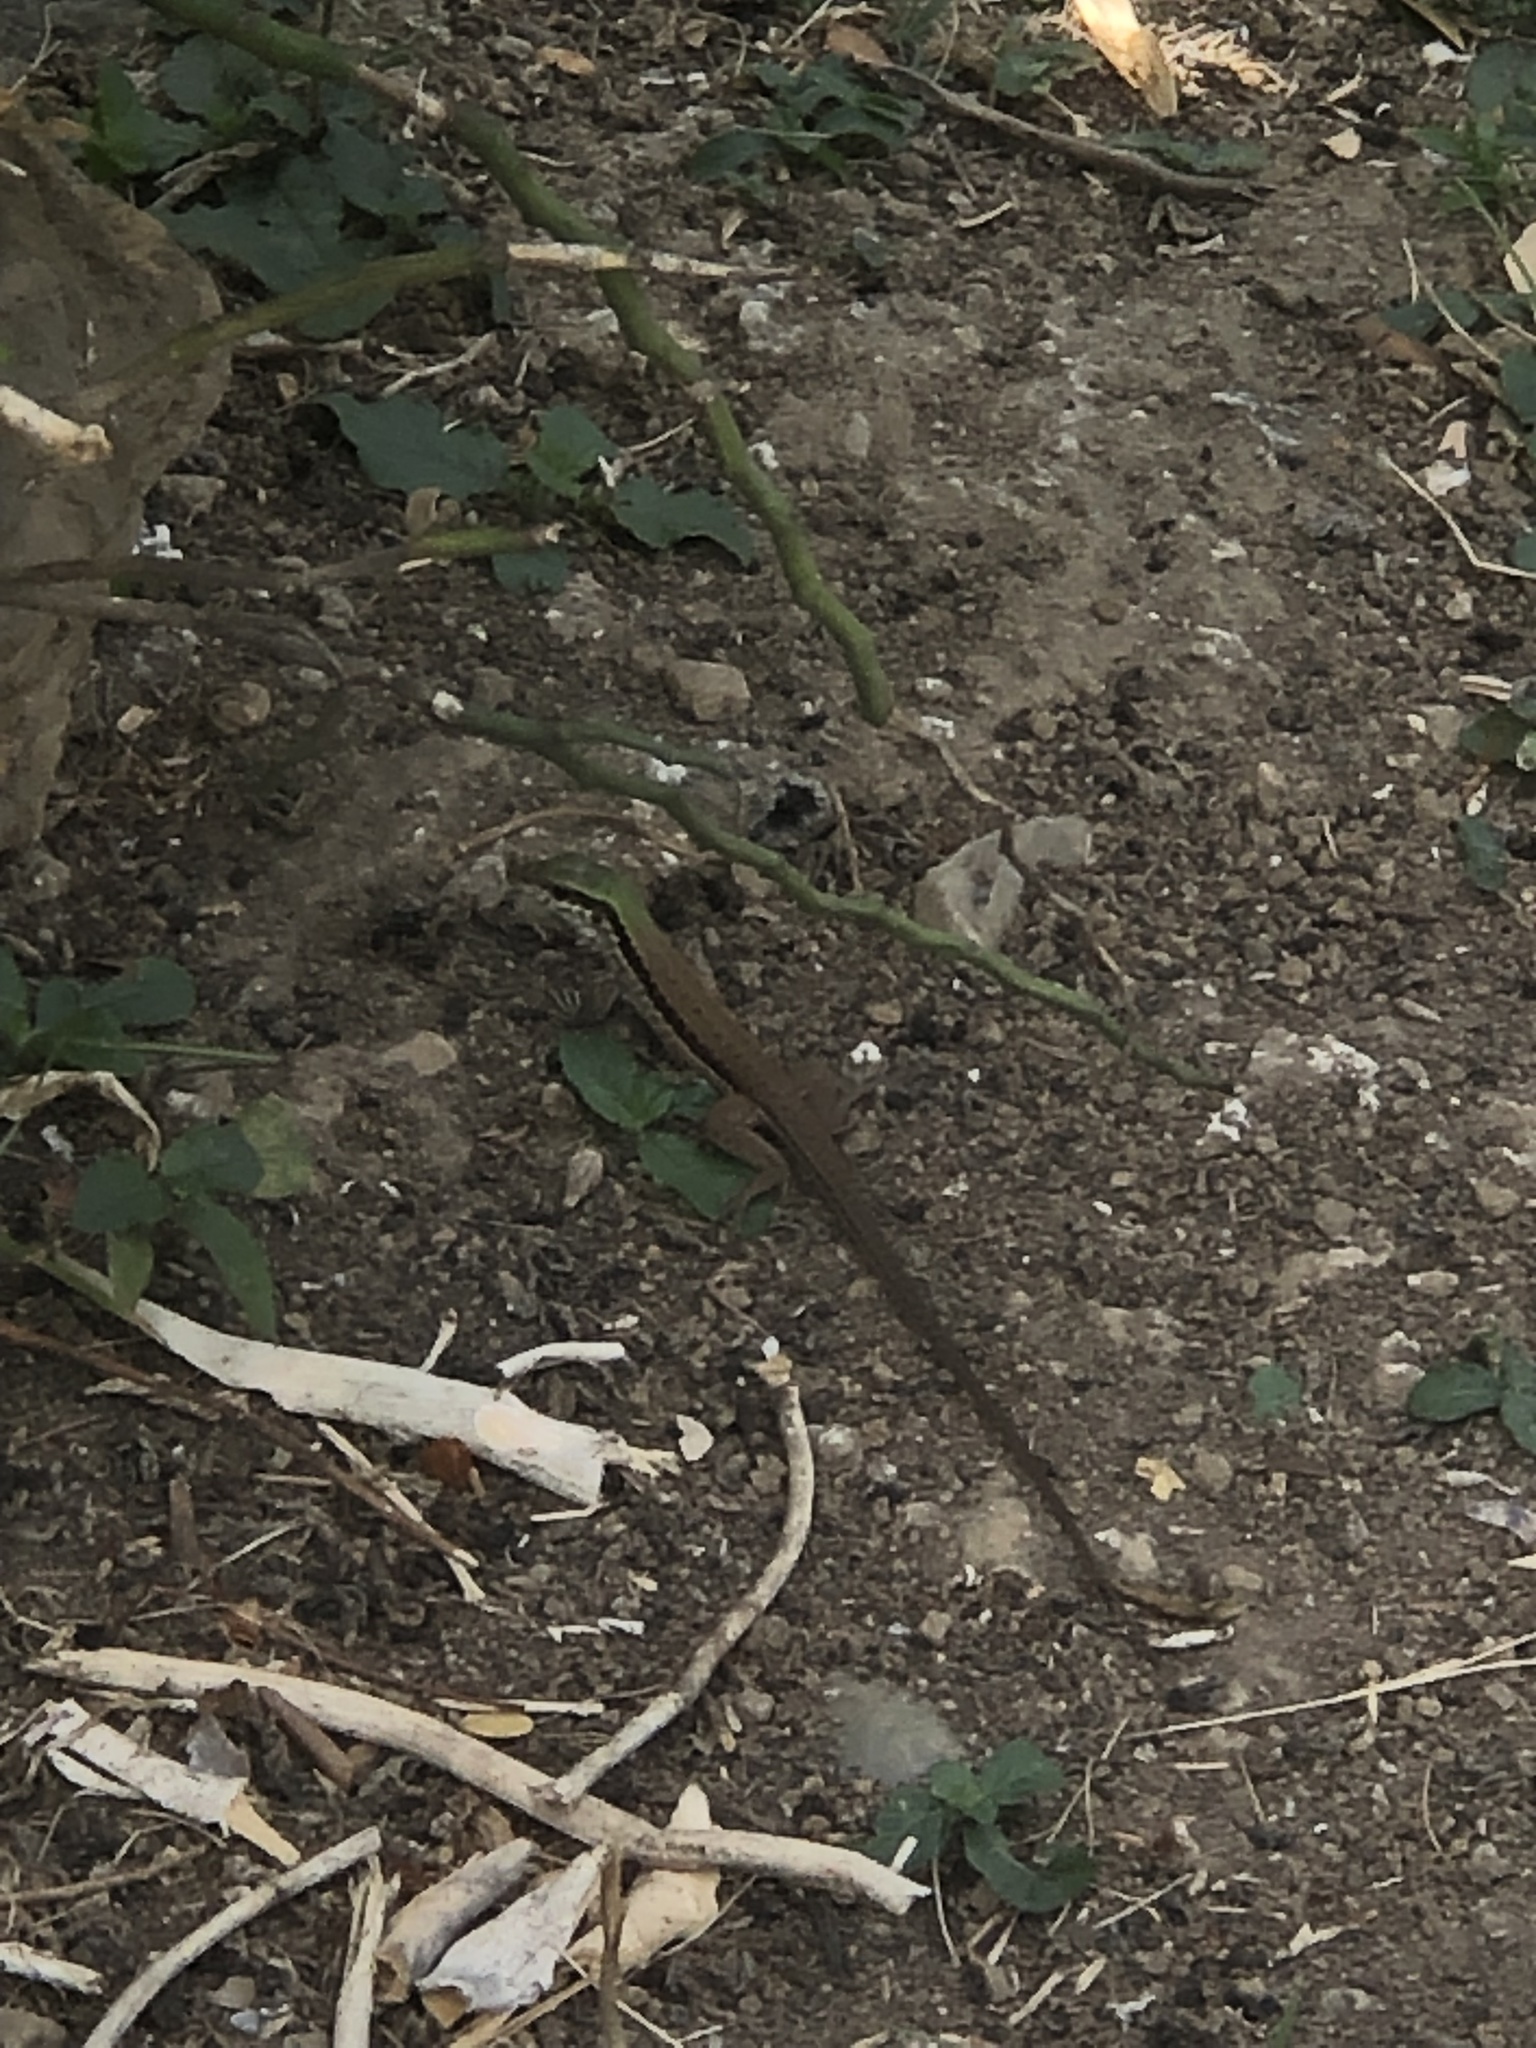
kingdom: Animalia
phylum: Chordata
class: Squamata
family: Teiidae
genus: Ameiva
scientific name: Ameiva atrigularis
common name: Venezuelan ameiva
